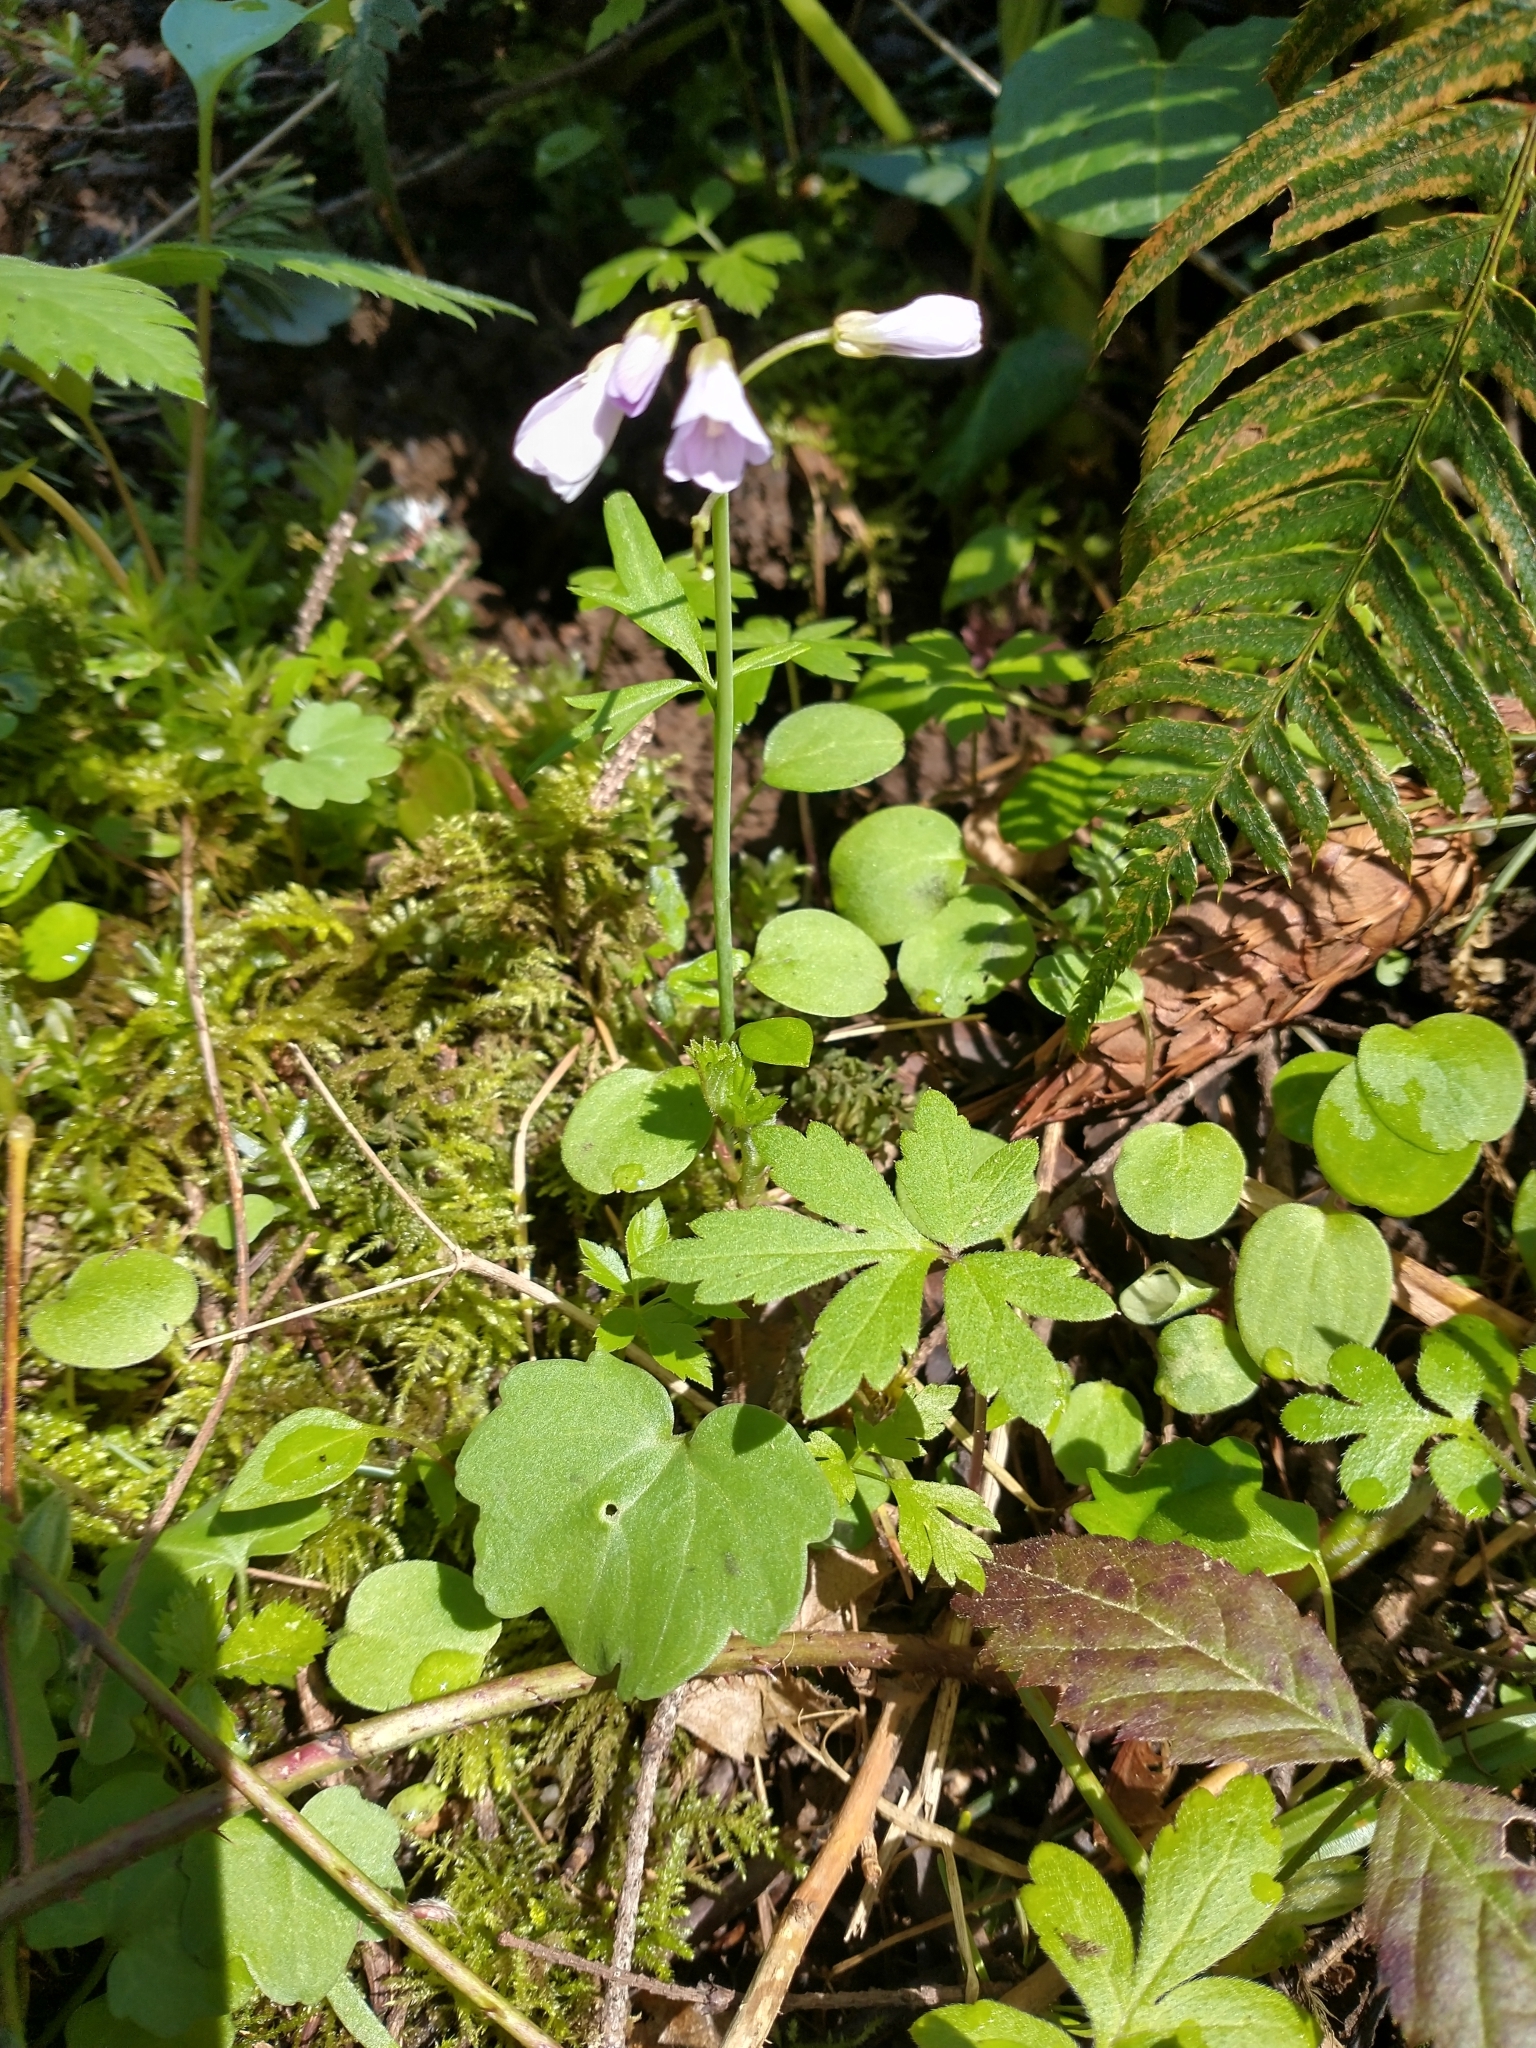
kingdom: Plantae
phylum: Tracheophyta
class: Magnoliopsida
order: Brassicales
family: Brassicaceae
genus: Cardamine
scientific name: Cardamine nuttallii
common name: Nuttall's toothwort
